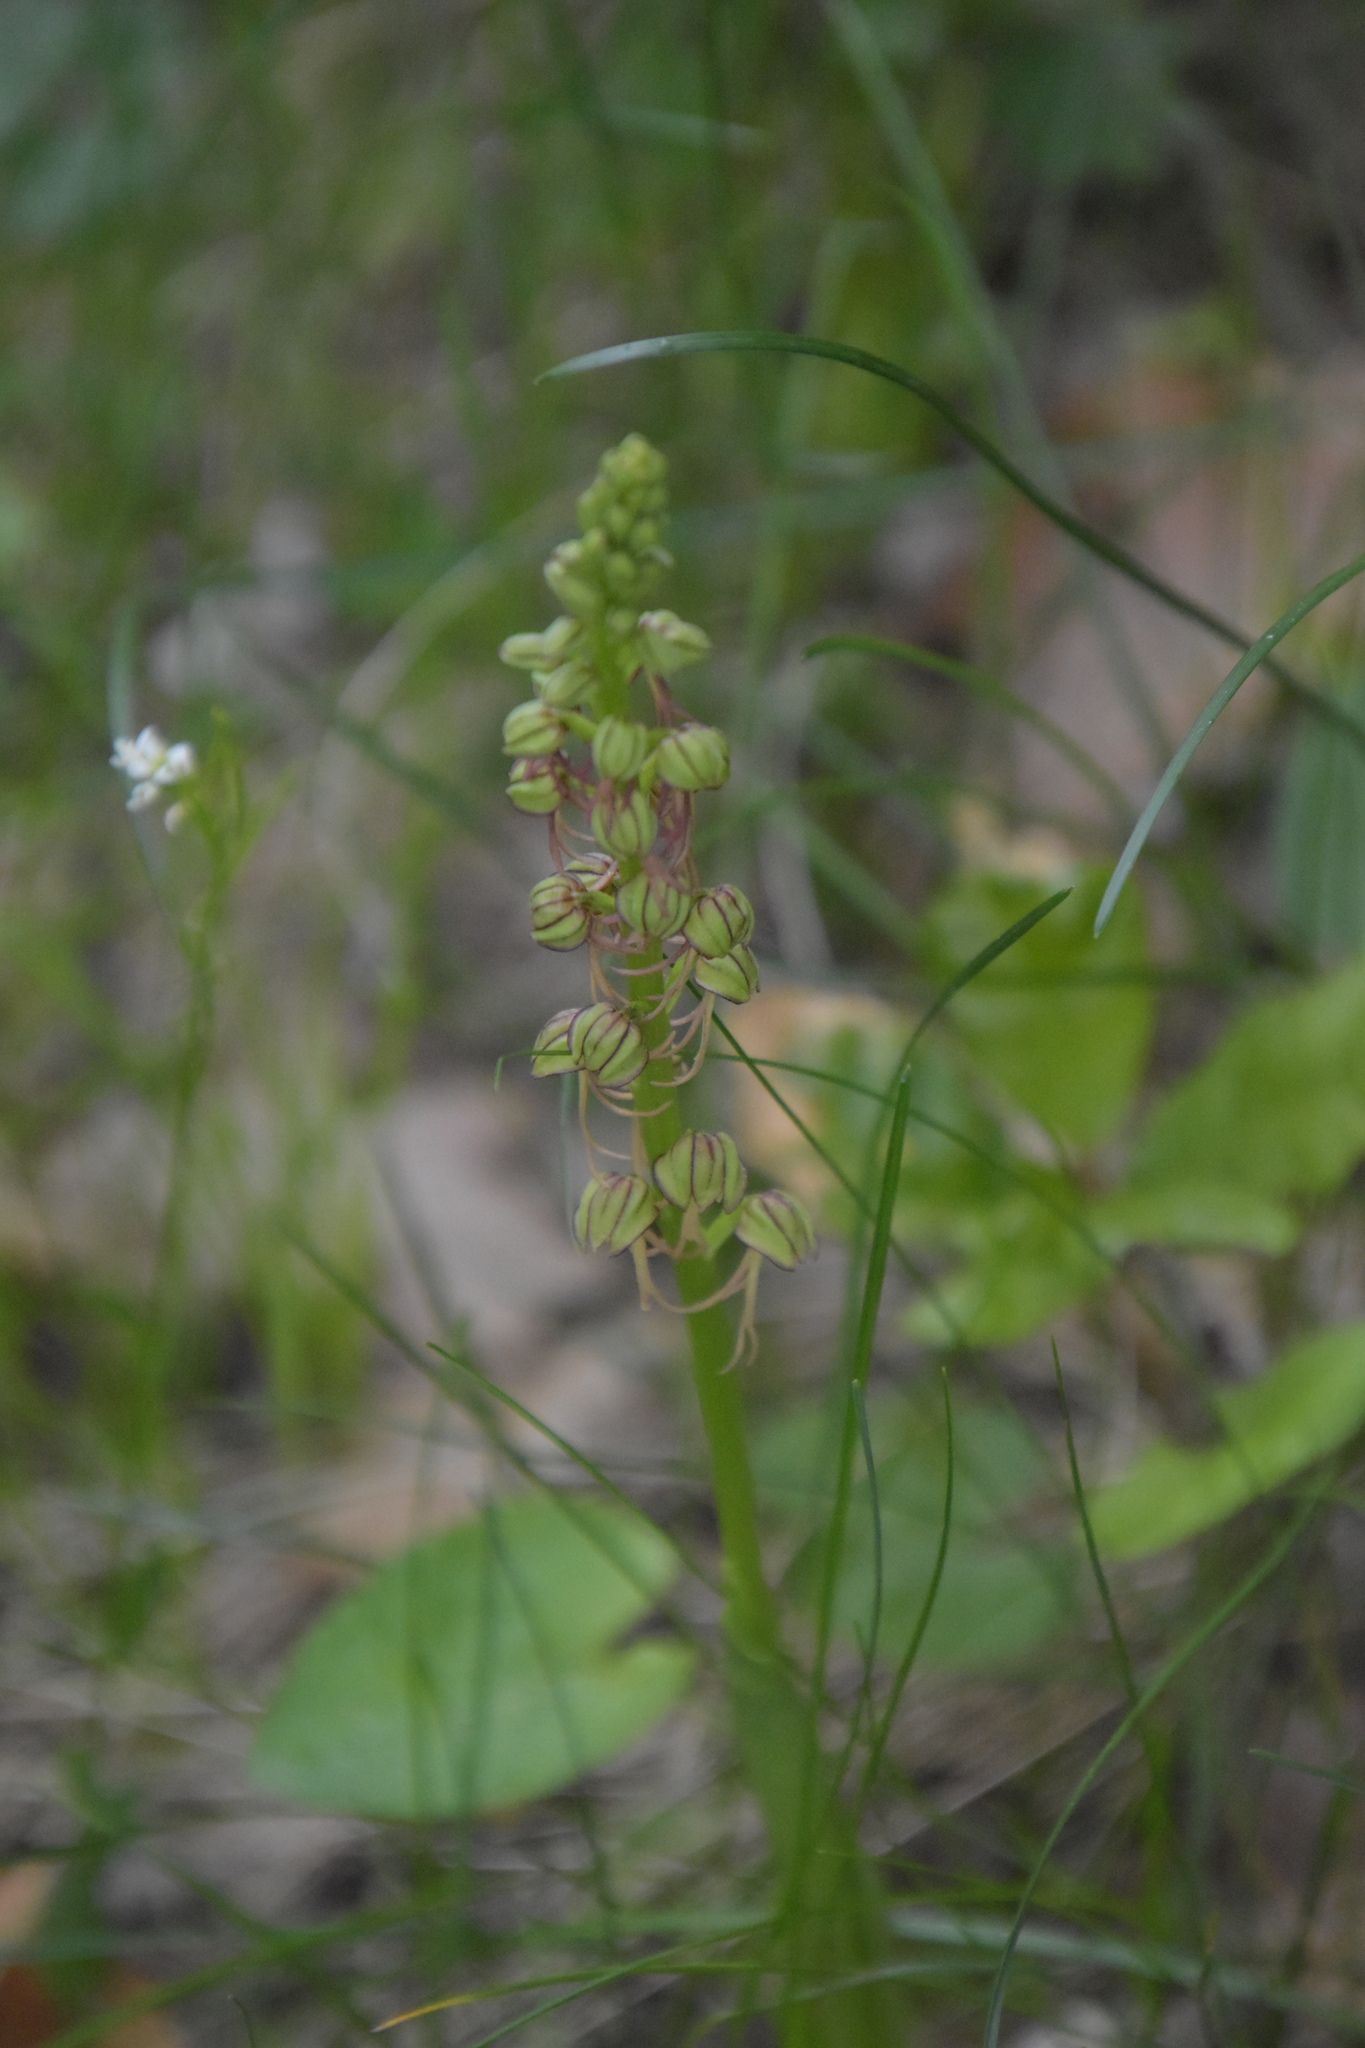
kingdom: Plantae
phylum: Tracheophyta
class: Liliopsida
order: Asparagales
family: Orchidaceae
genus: Orchis
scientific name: Orchis anthropophora
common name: Man orchid
